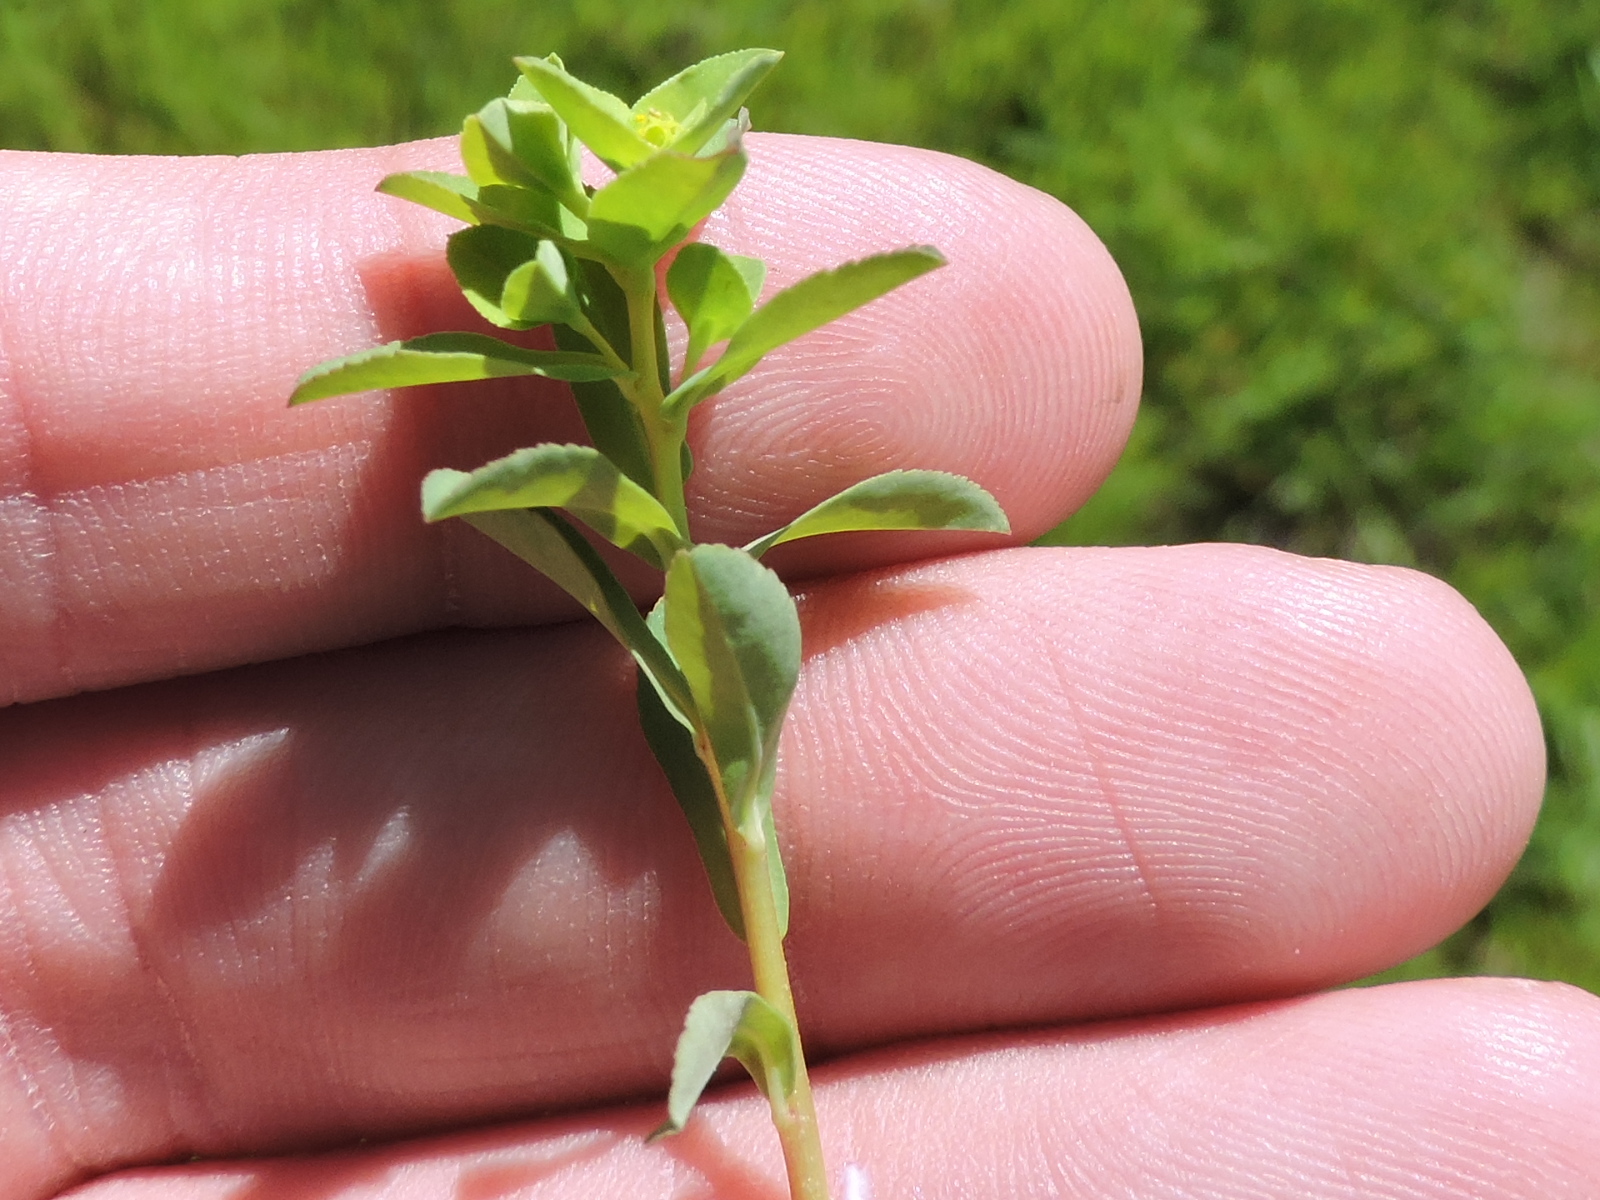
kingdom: Plantae
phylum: Tracheophyta
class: Magnoliopsida
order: Malpighiales
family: Euphorbiaceae
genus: Euphorbia
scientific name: Euphorbia spathulata
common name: Blunt spurge
